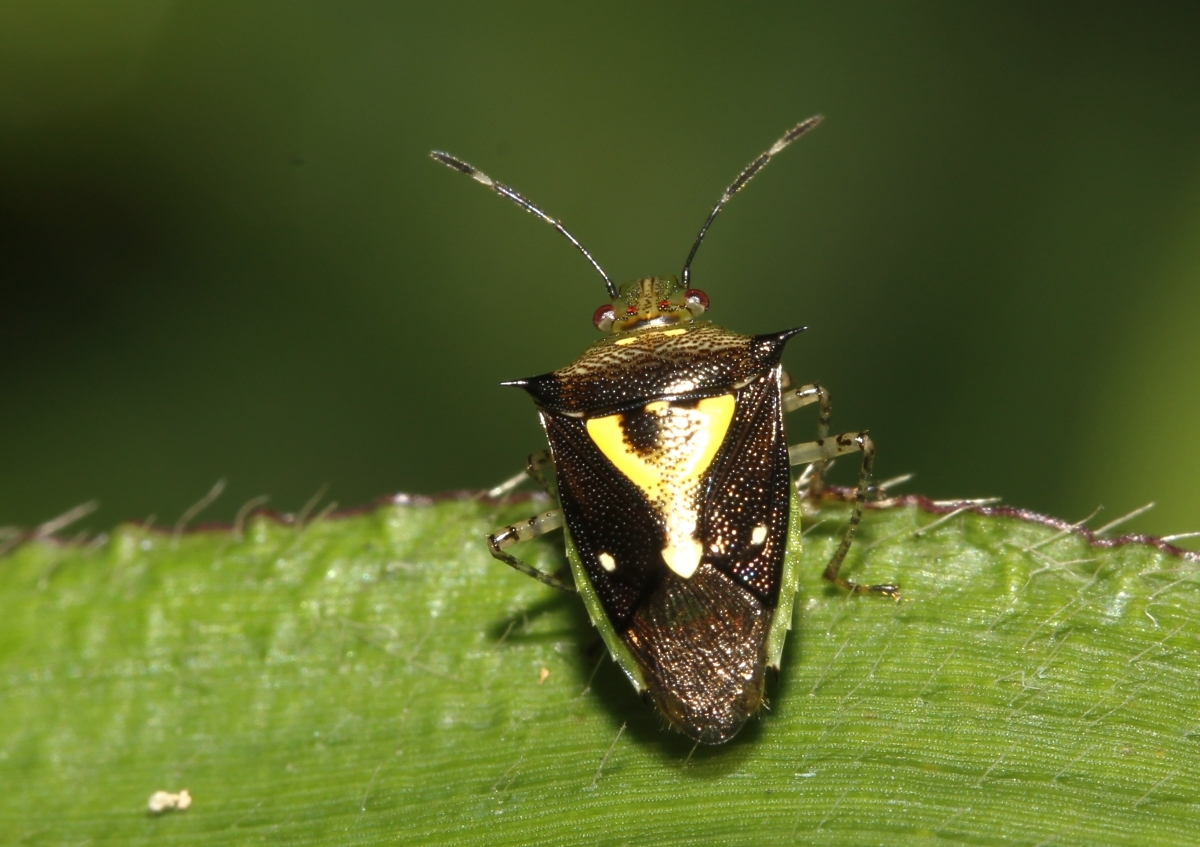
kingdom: Animalia
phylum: Arthropoda
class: Insecta
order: Hemiptera
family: Pentatomidae
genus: Mormidea
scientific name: Mormidea ypsilon
